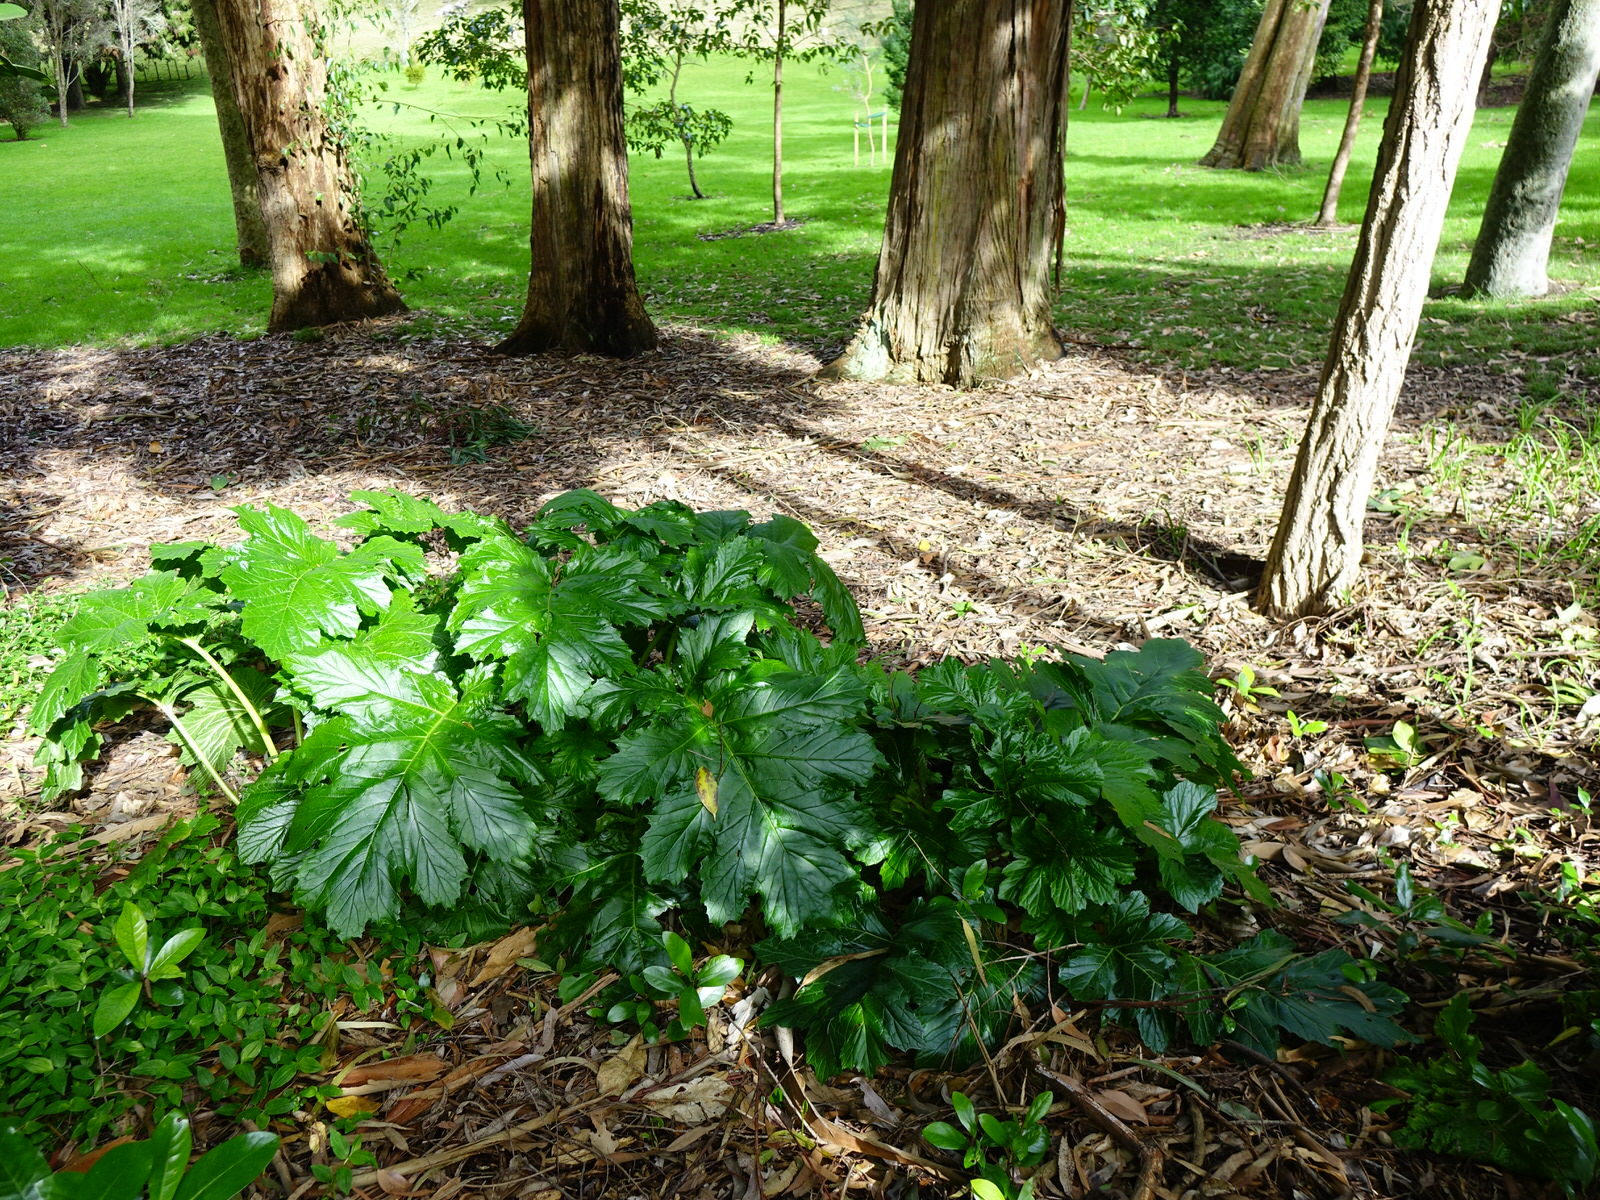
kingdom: Plantae
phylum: Tracheophyta
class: Magnoliopsida
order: Lamiales
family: Acanthaceae
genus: Acanthus
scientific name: Acanthus mollis
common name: Bear's-breech
